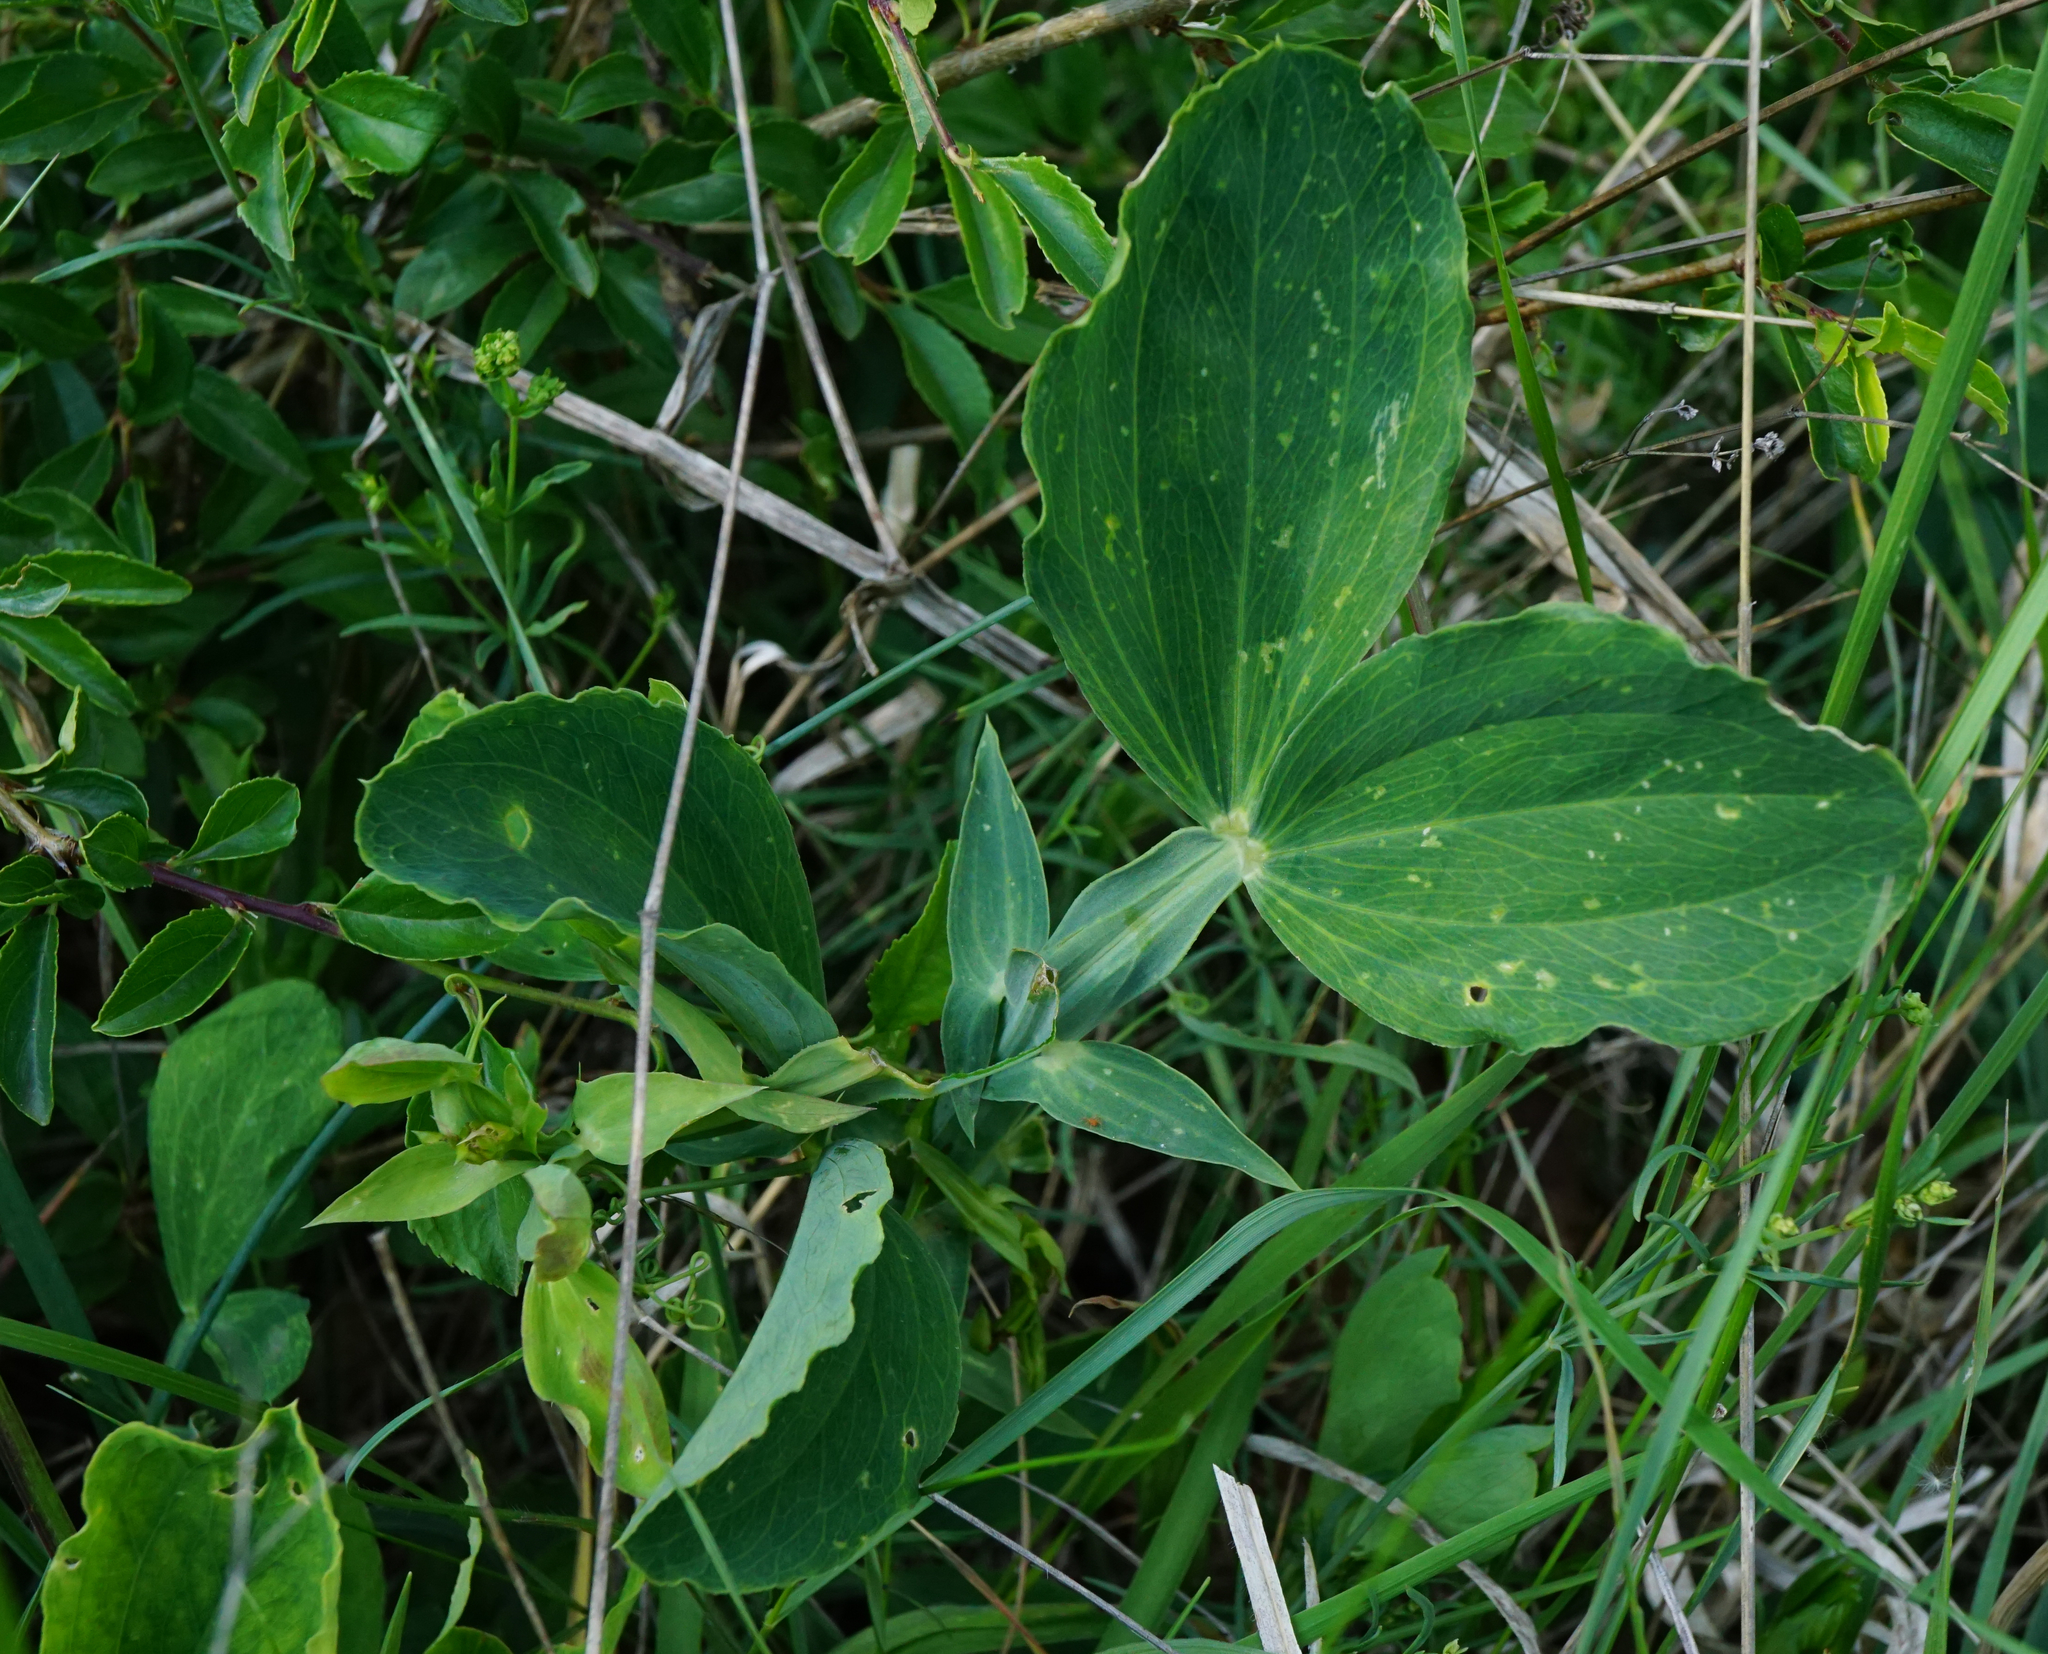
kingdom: Plantae
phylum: Tracheophyta
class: Magnoliopsida
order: Fabales
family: Fabaceae
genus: Lathyrus
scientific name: Lathyrus latifolius
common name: Perennial pea
